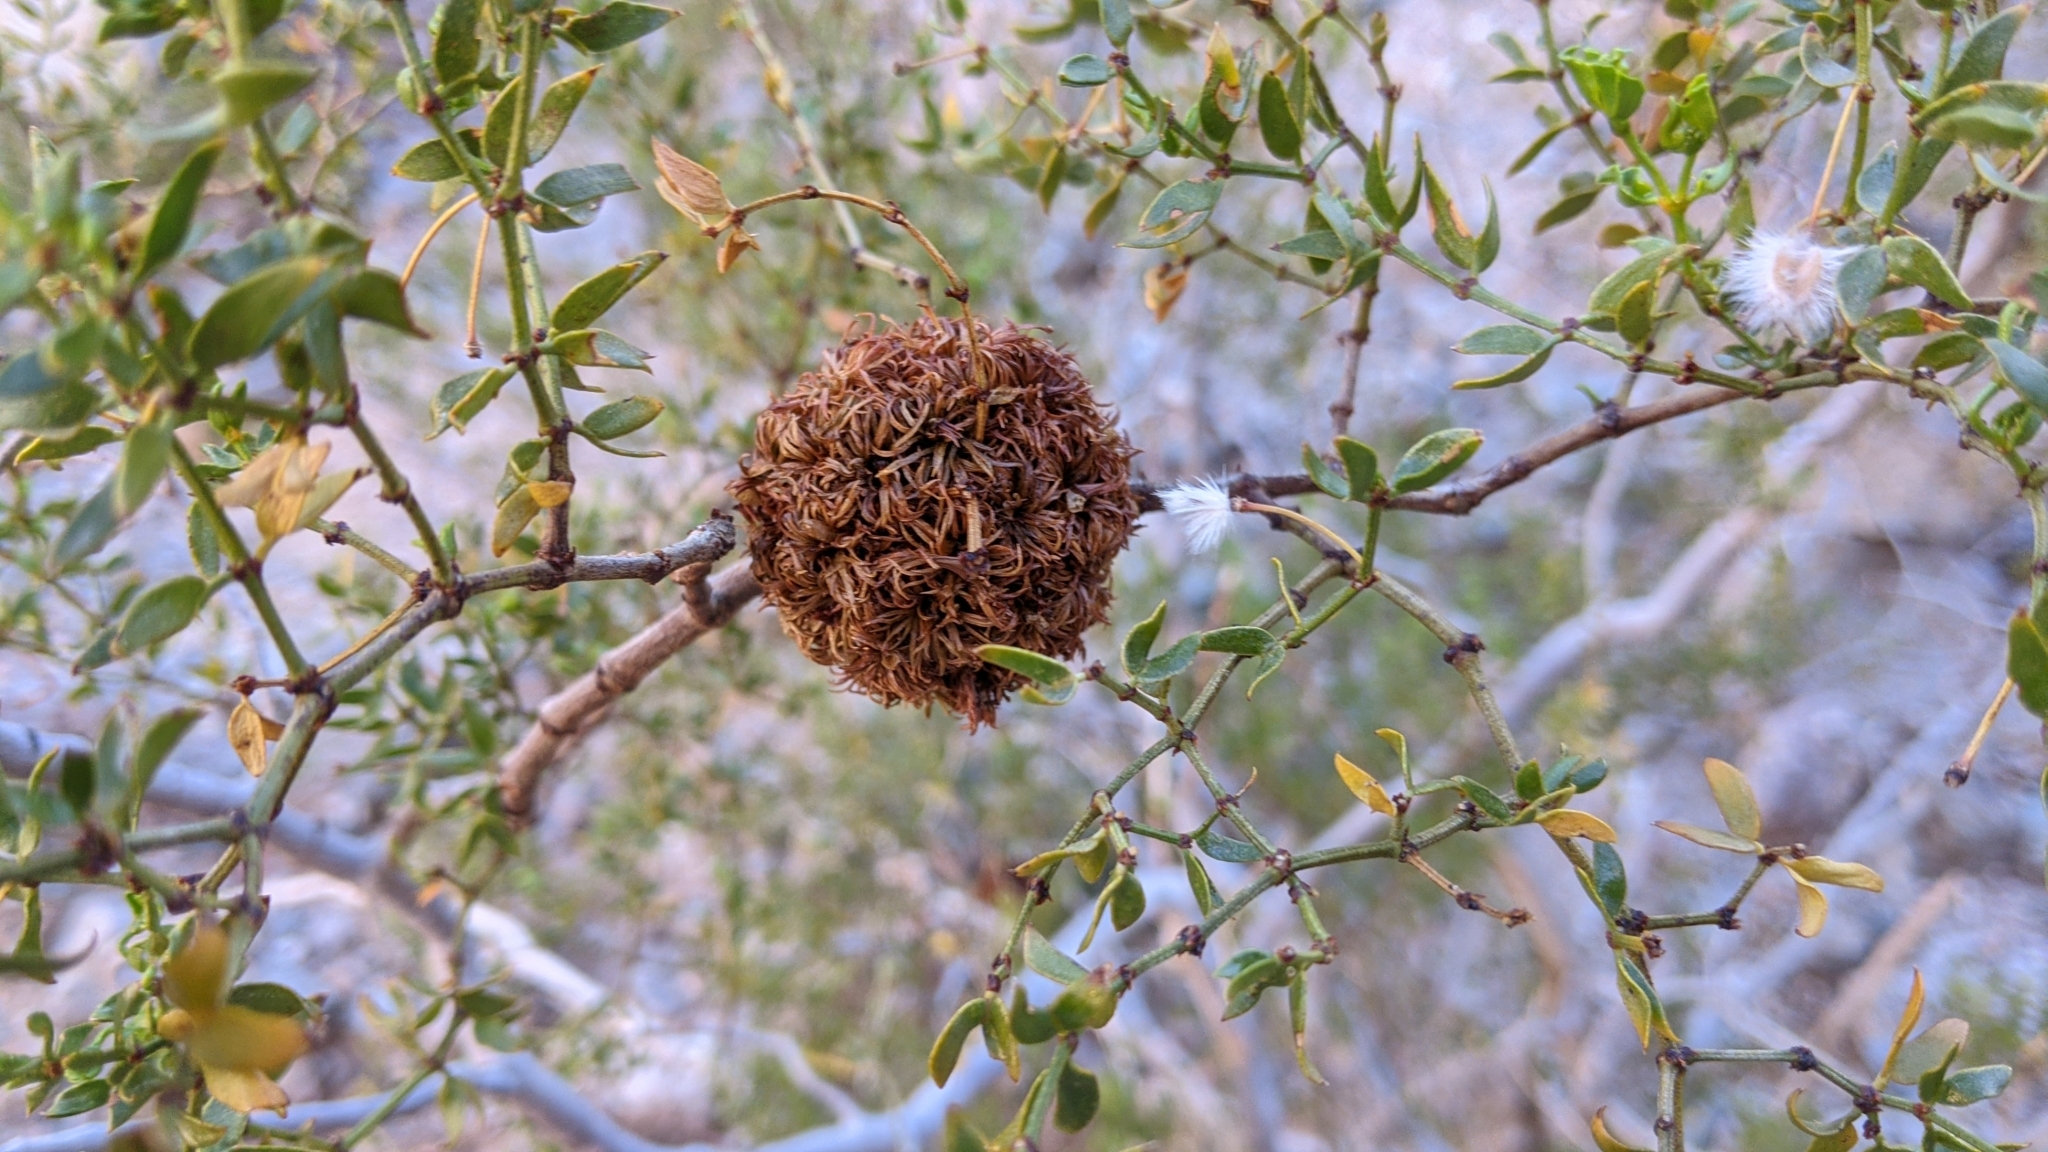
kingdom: Animalia
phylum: Arthropoda
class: Insecta
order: Diptera
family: Cecidomyiidae
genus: Asphondylia
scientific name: Asphondylia auripila
